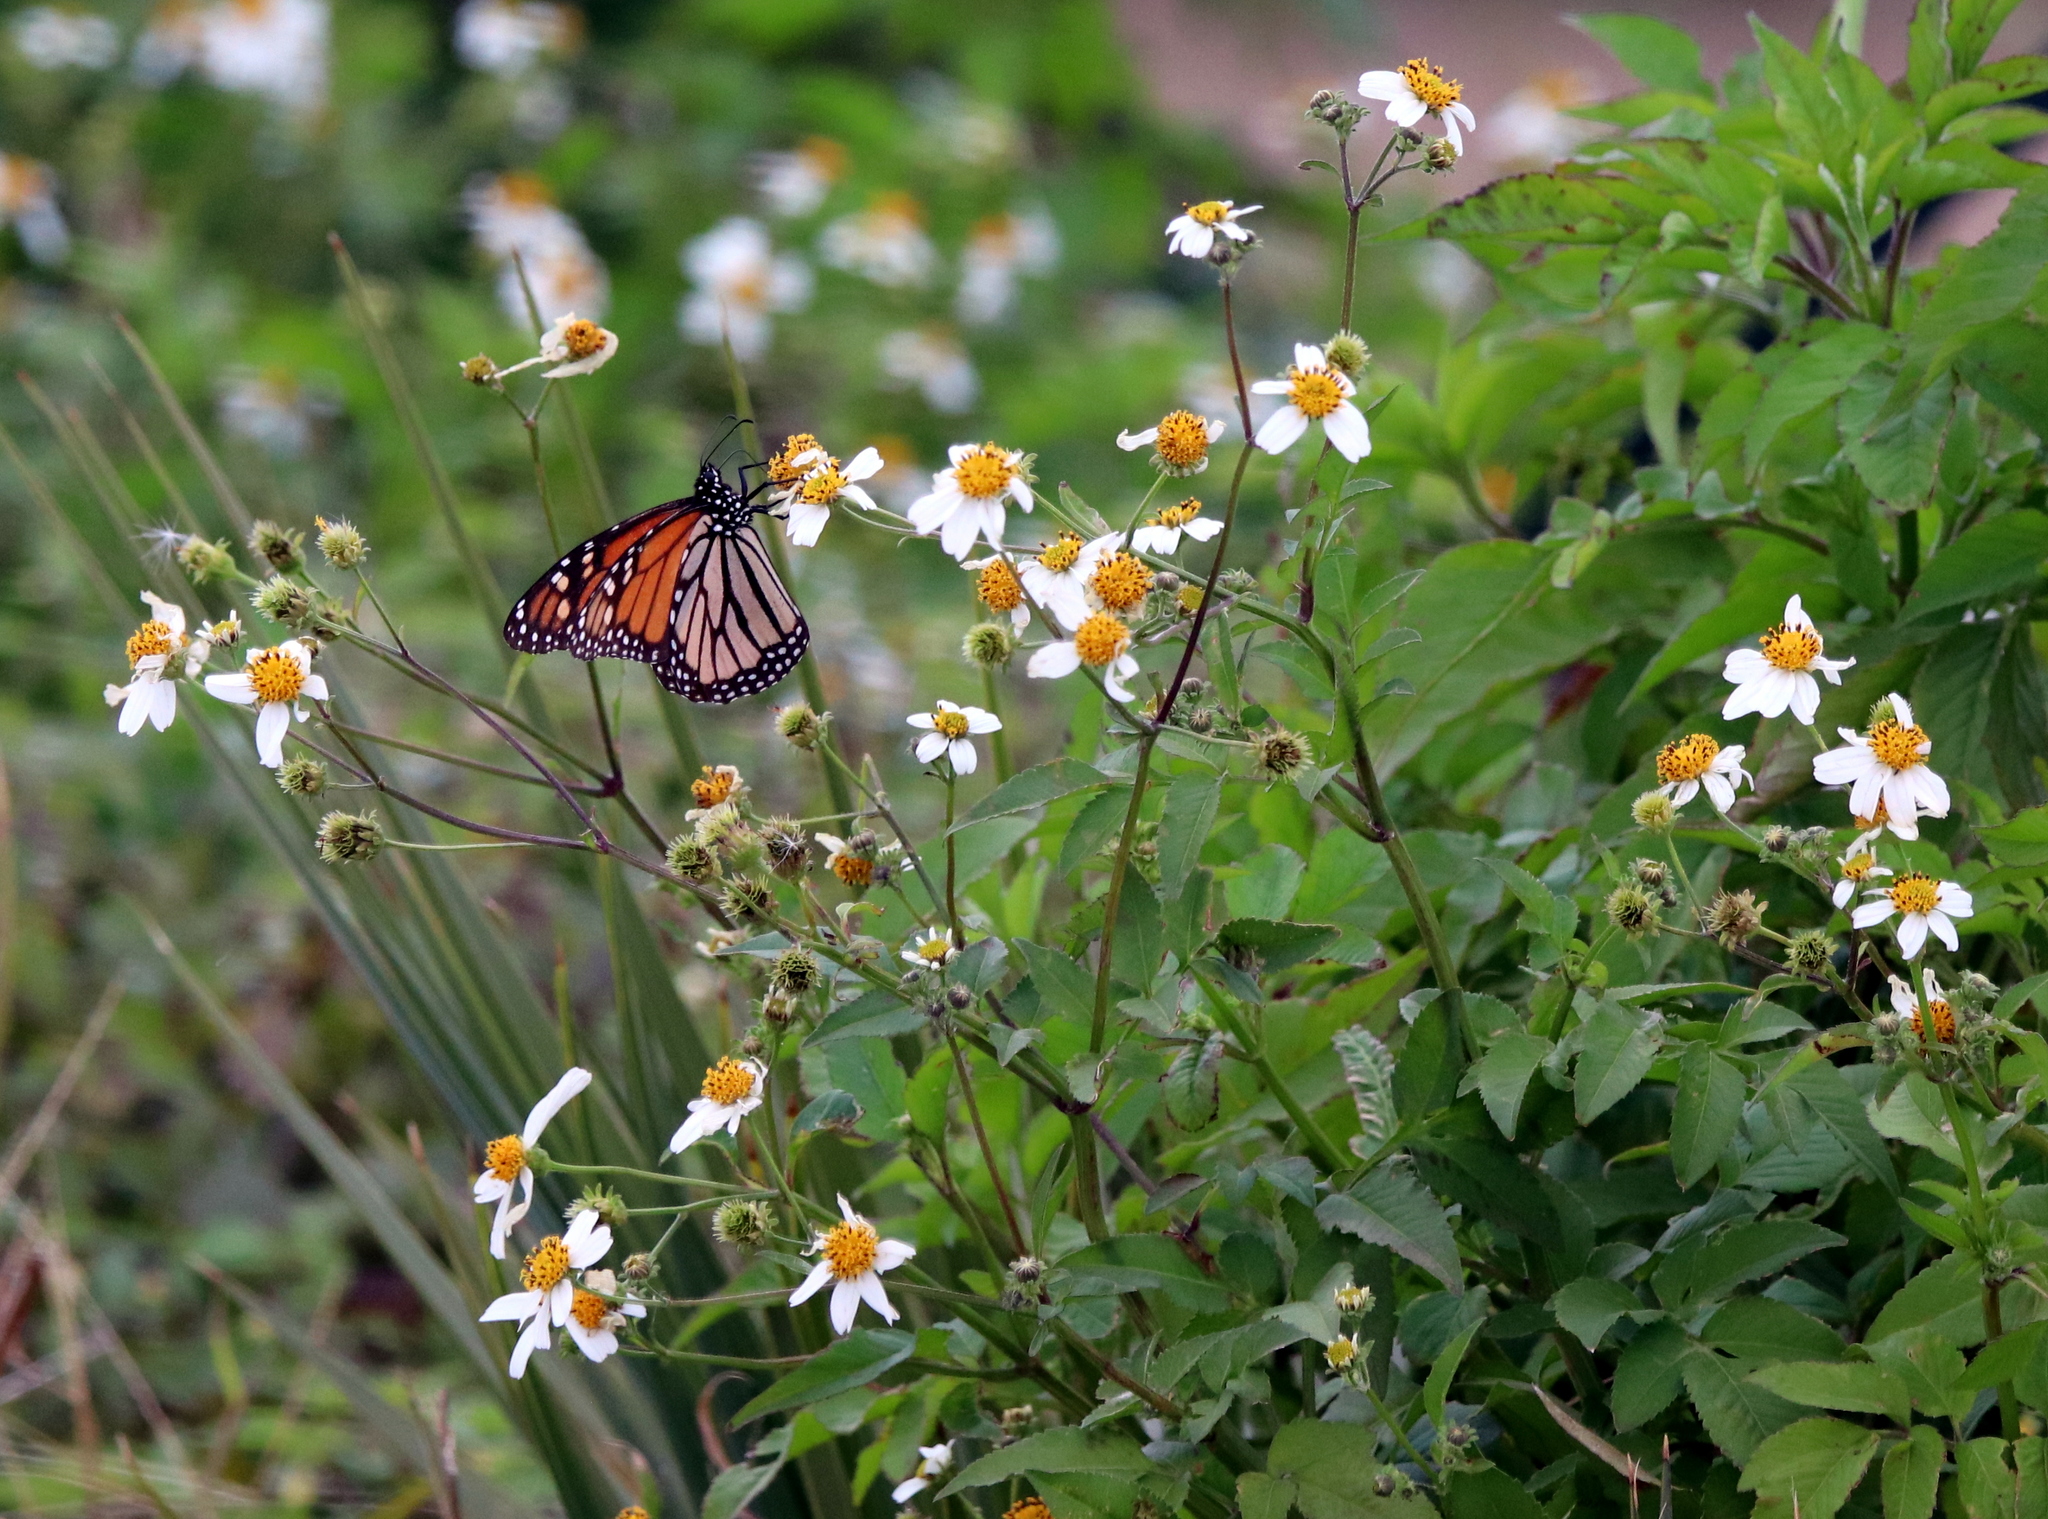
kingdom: Animalia
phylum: Arthropoda
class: Insecta
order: Lepidoptera
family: Nymphalidae
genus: Danaus
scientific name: Danaus plexippus
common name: Monarch
